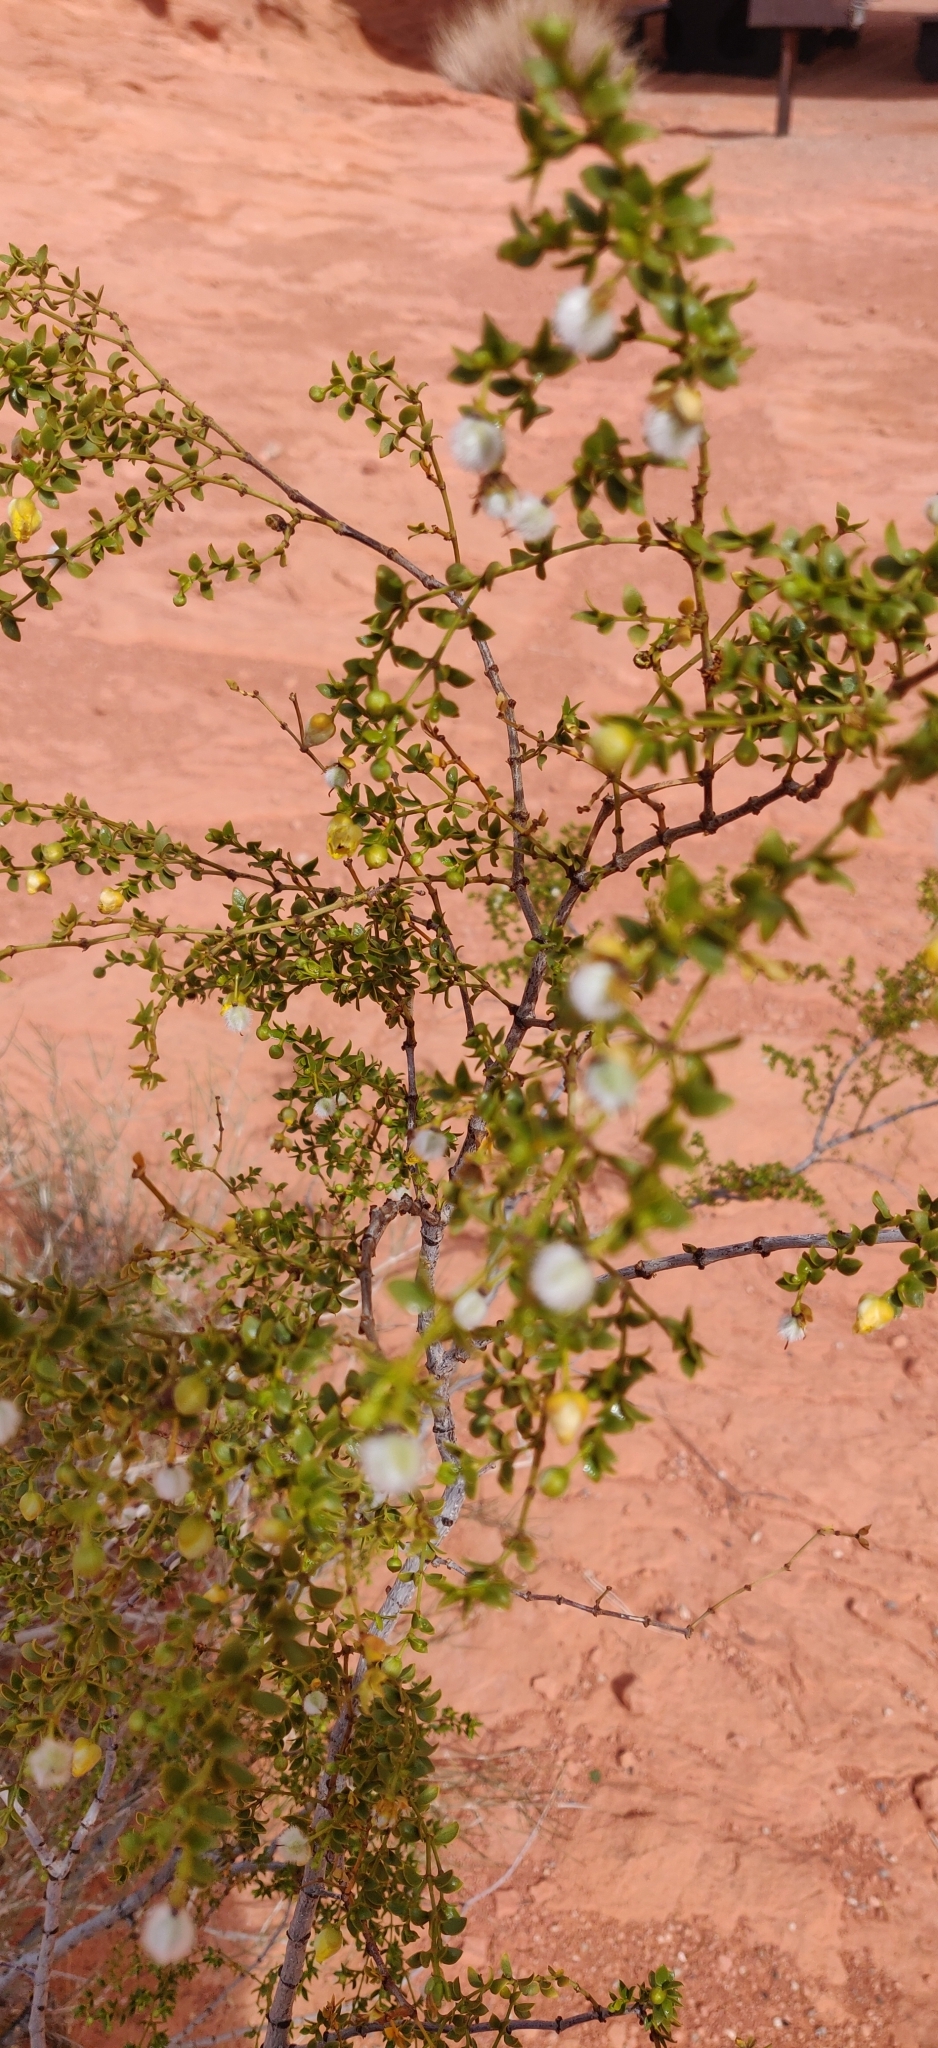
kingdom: Plantae
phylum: Tracheophyta
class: Magnoliopsida
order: Zygophyllales
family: Zygophyllaceae
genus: Larrea
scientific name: Larrea tridentata
